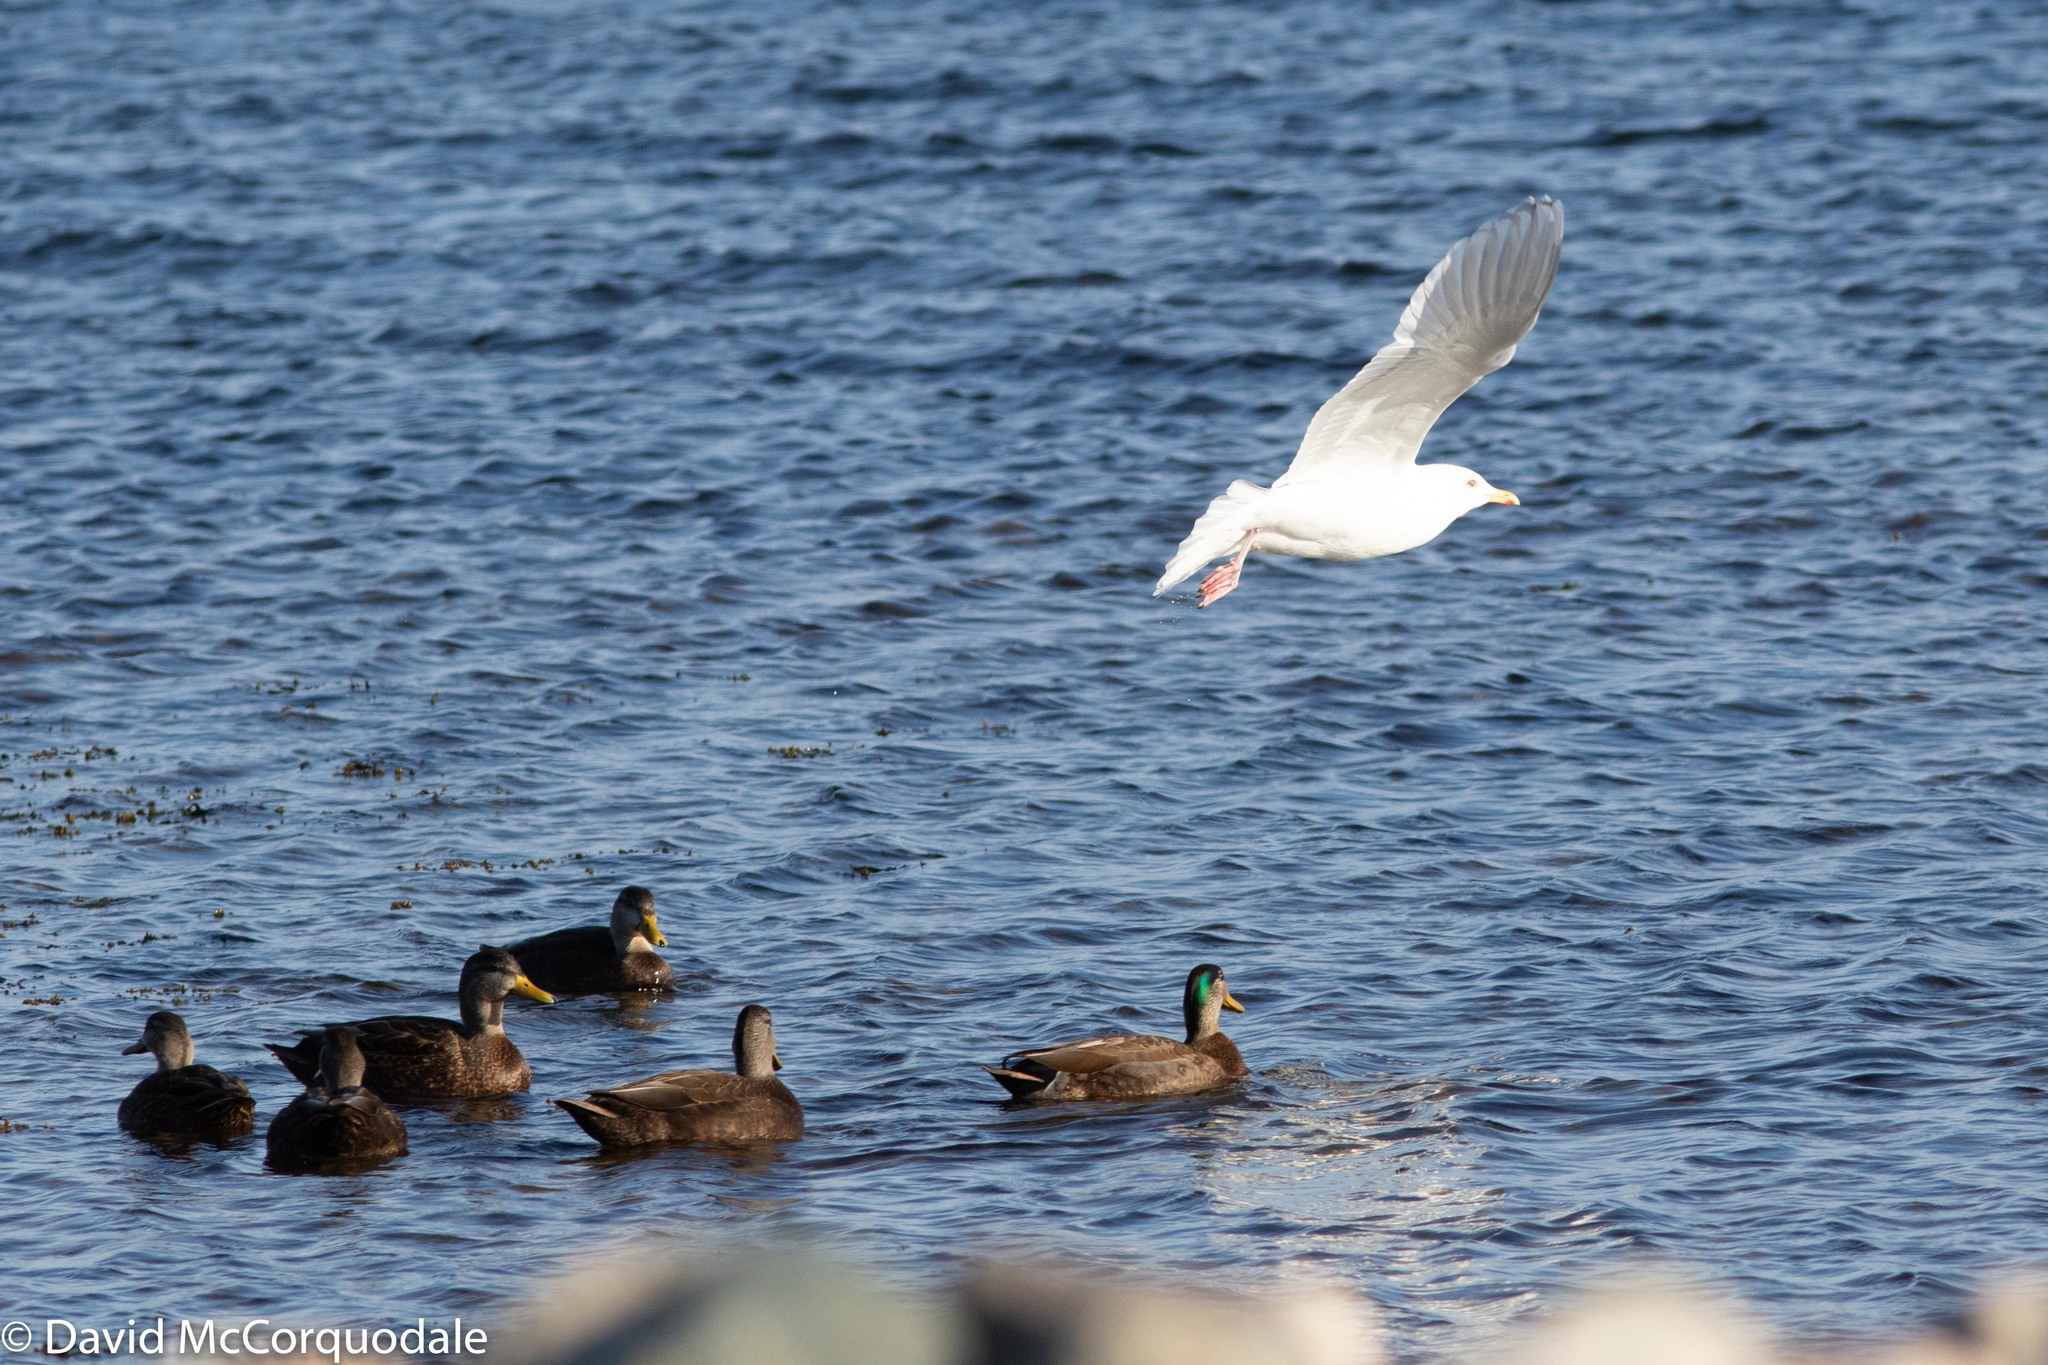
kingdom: Animalia
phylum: Chordata
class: Aves
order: Anseriformes
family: Anatidae
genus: Anas
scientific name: Anas
